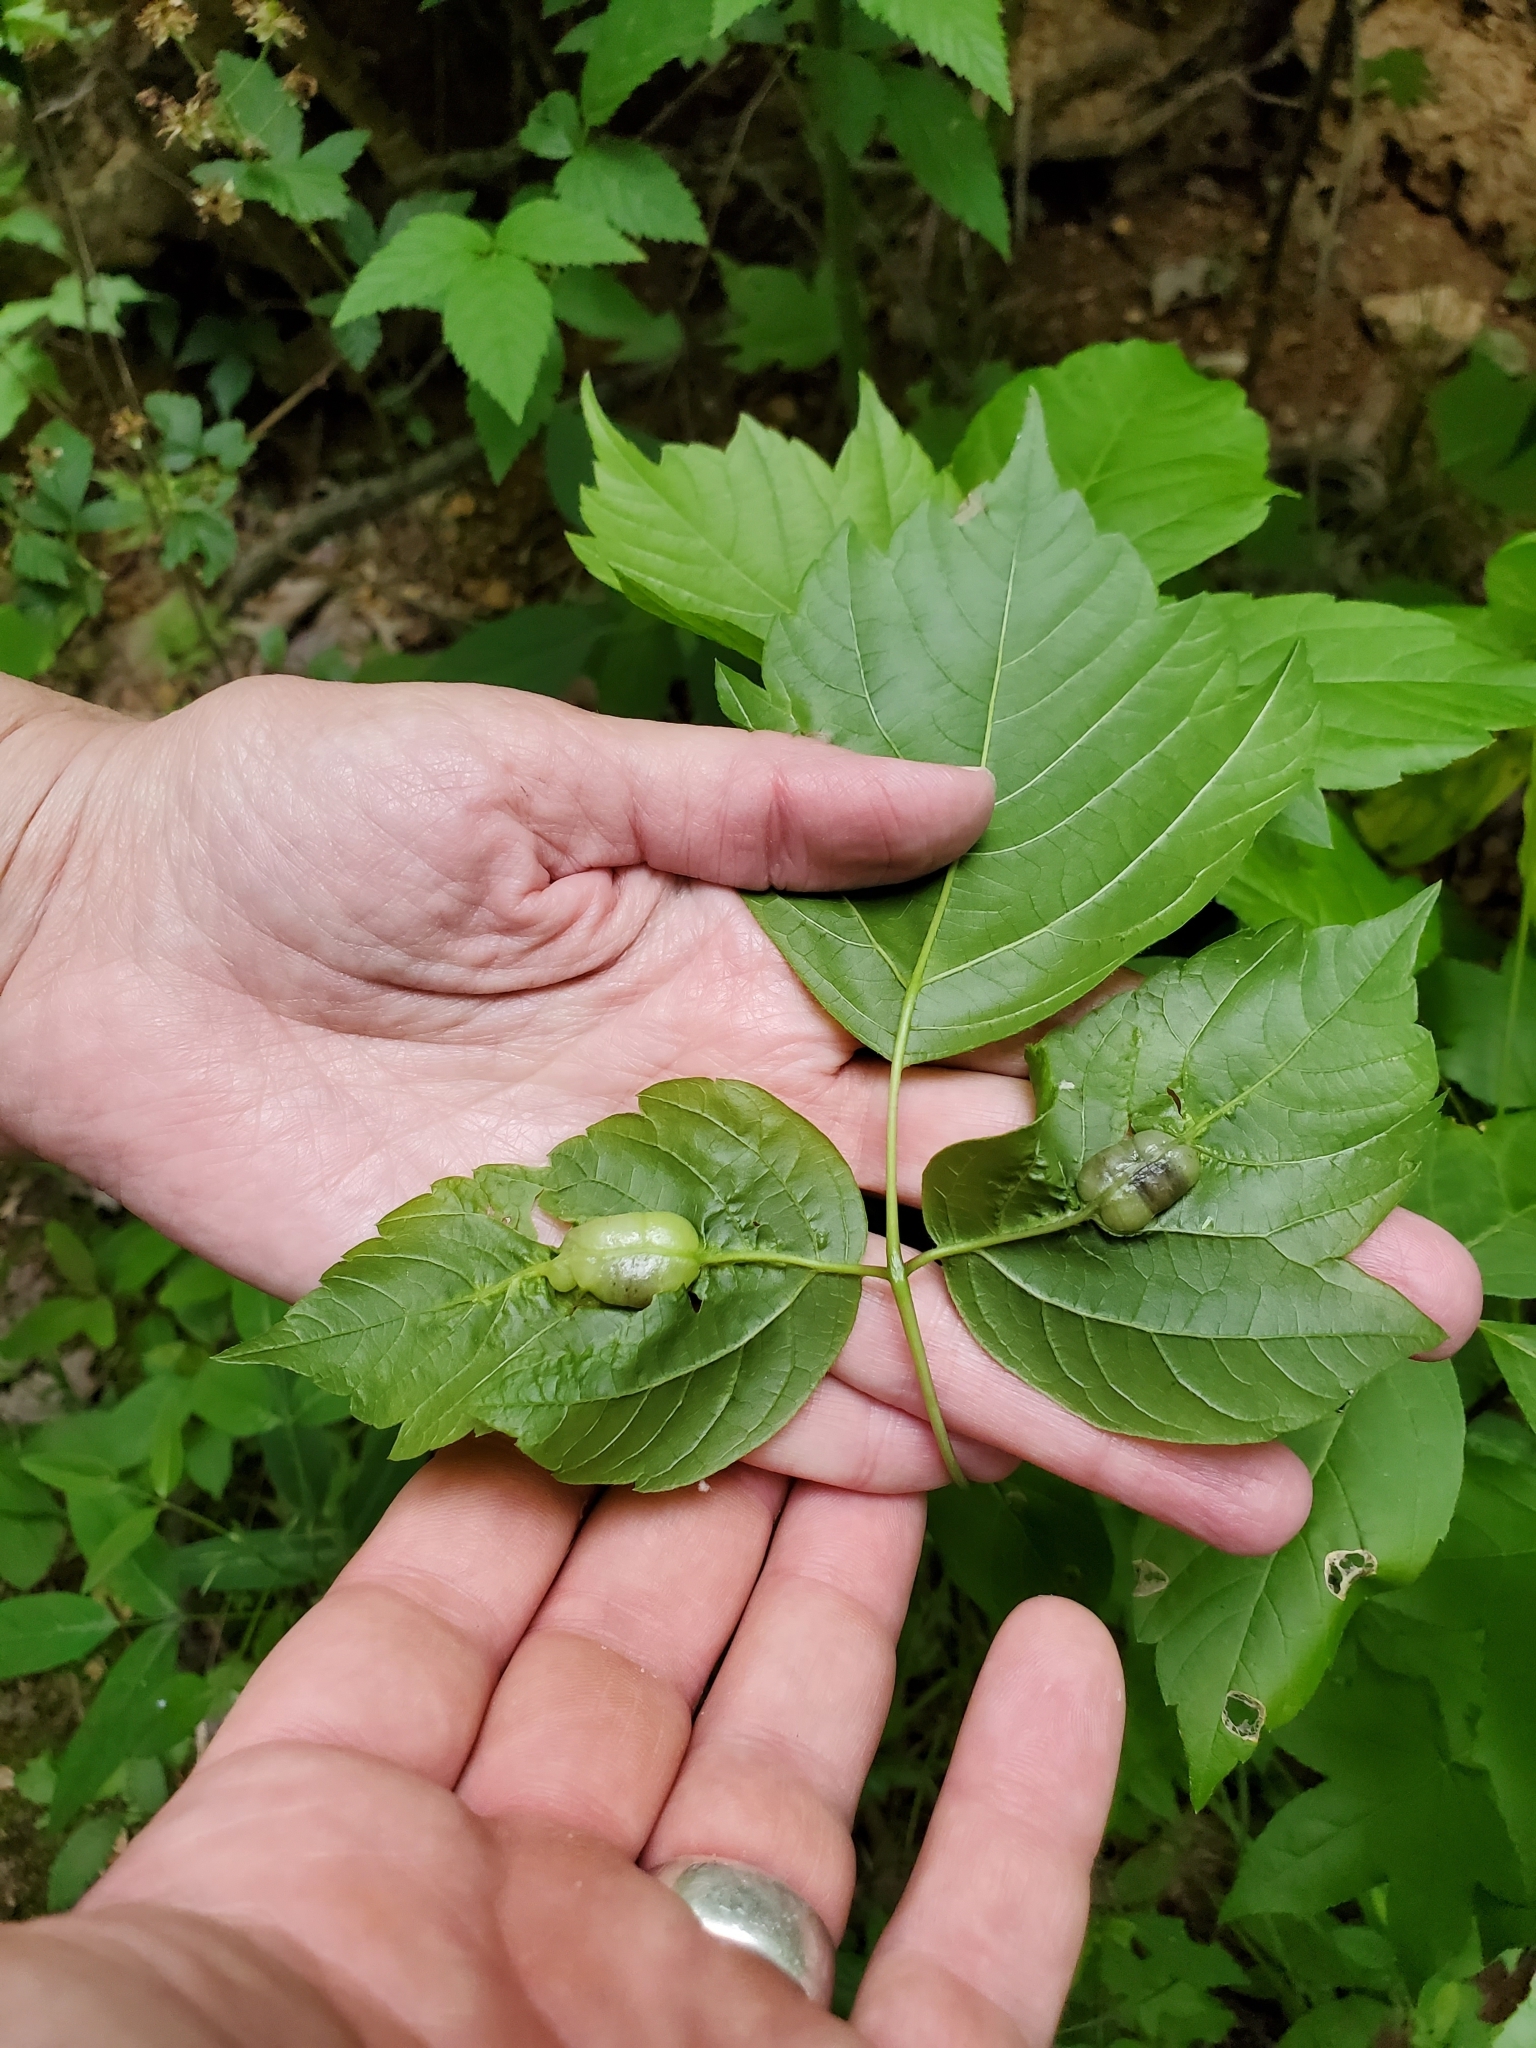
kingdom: Animalia
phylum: Arthropoda
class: Insecta
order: Diptera
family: Cecidomyiidae
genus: Contarinia
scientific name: Contarinia negundinis
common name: Boxelder budgall midge
